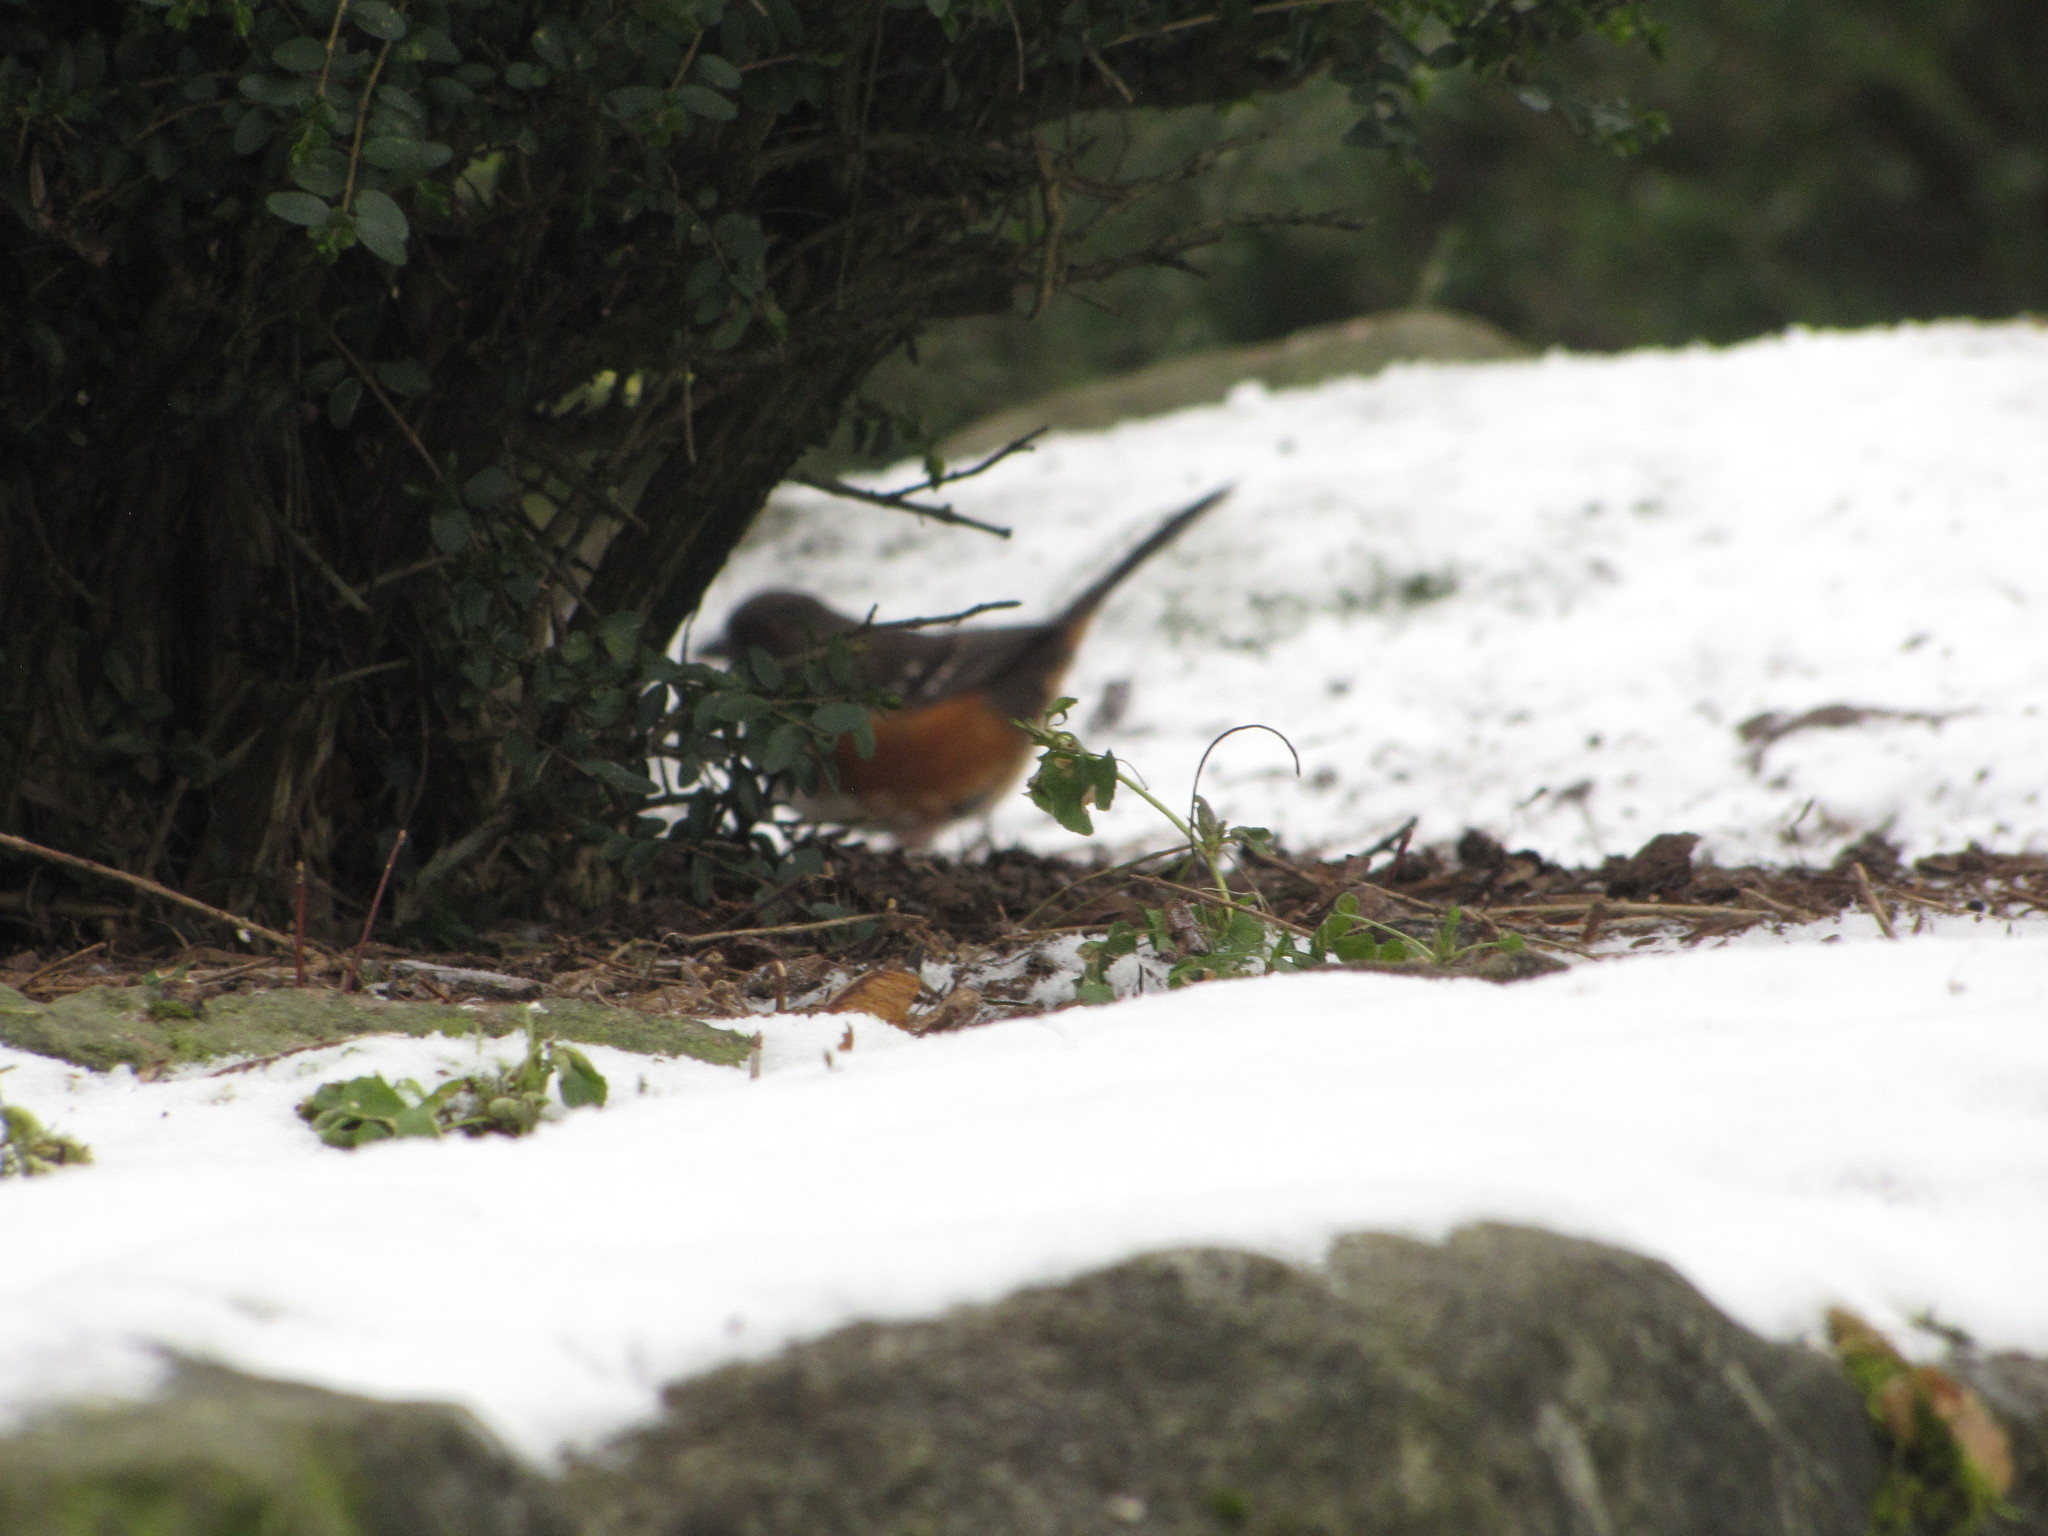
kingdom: Animalia
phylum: Chordata
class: Aves
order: Passeriformes
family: Passerellidae
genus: Pipilo
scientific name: Pipilo maculatus
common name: Spotted towhee
